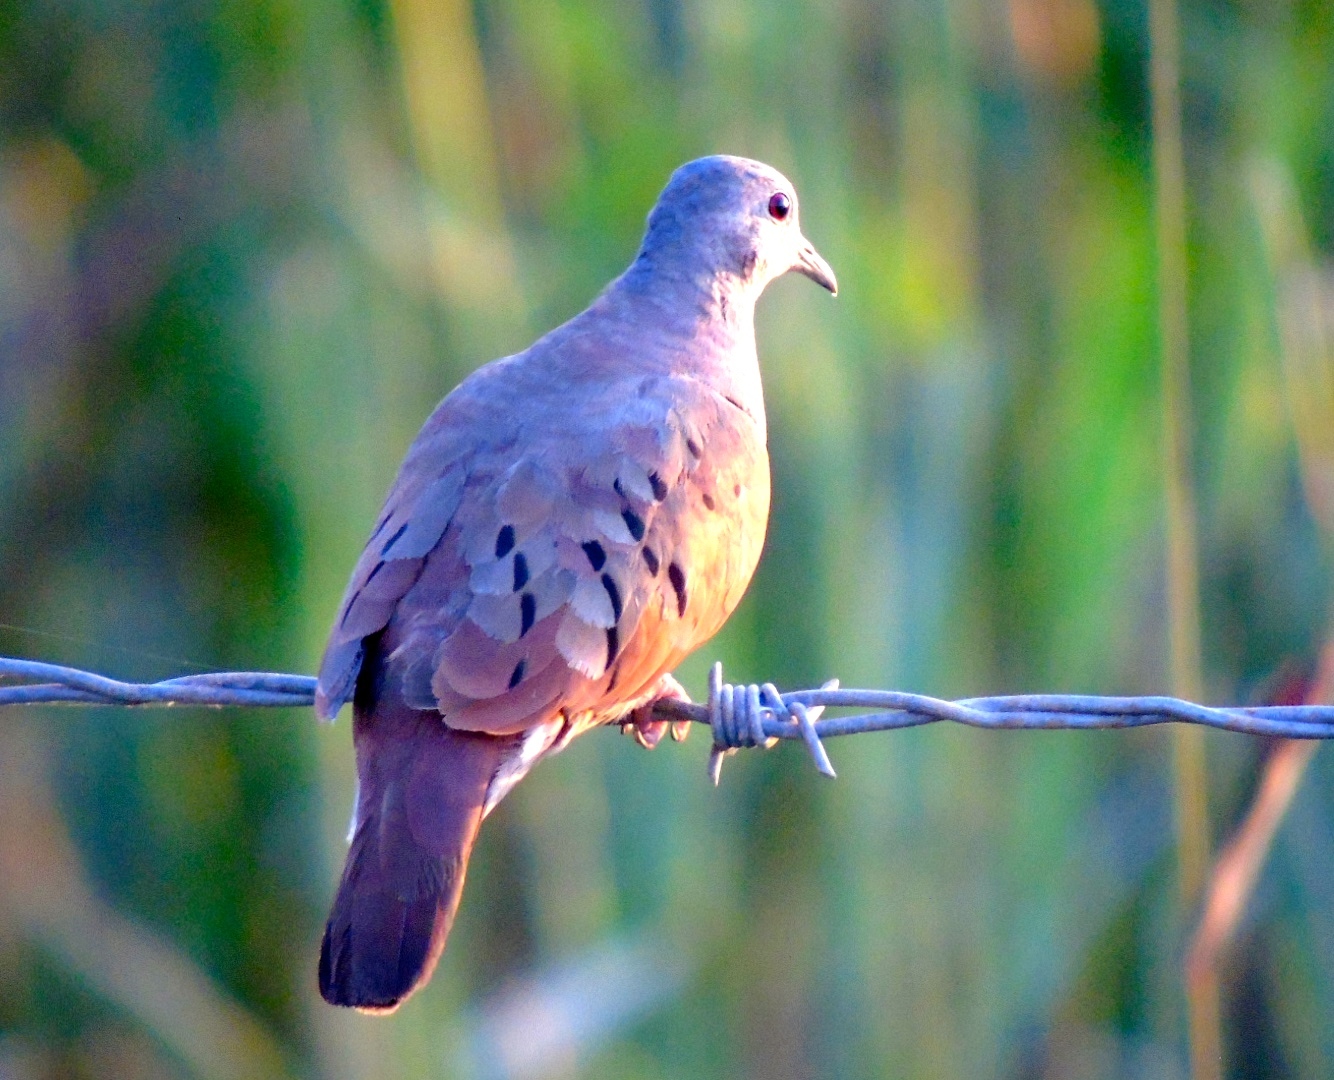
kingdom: Animalia
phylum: Chordata
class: Aves
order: Columbiformes
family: Columbidae
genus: Columbina
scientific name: Columbina talpacoti
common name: Ruddy ground dove
